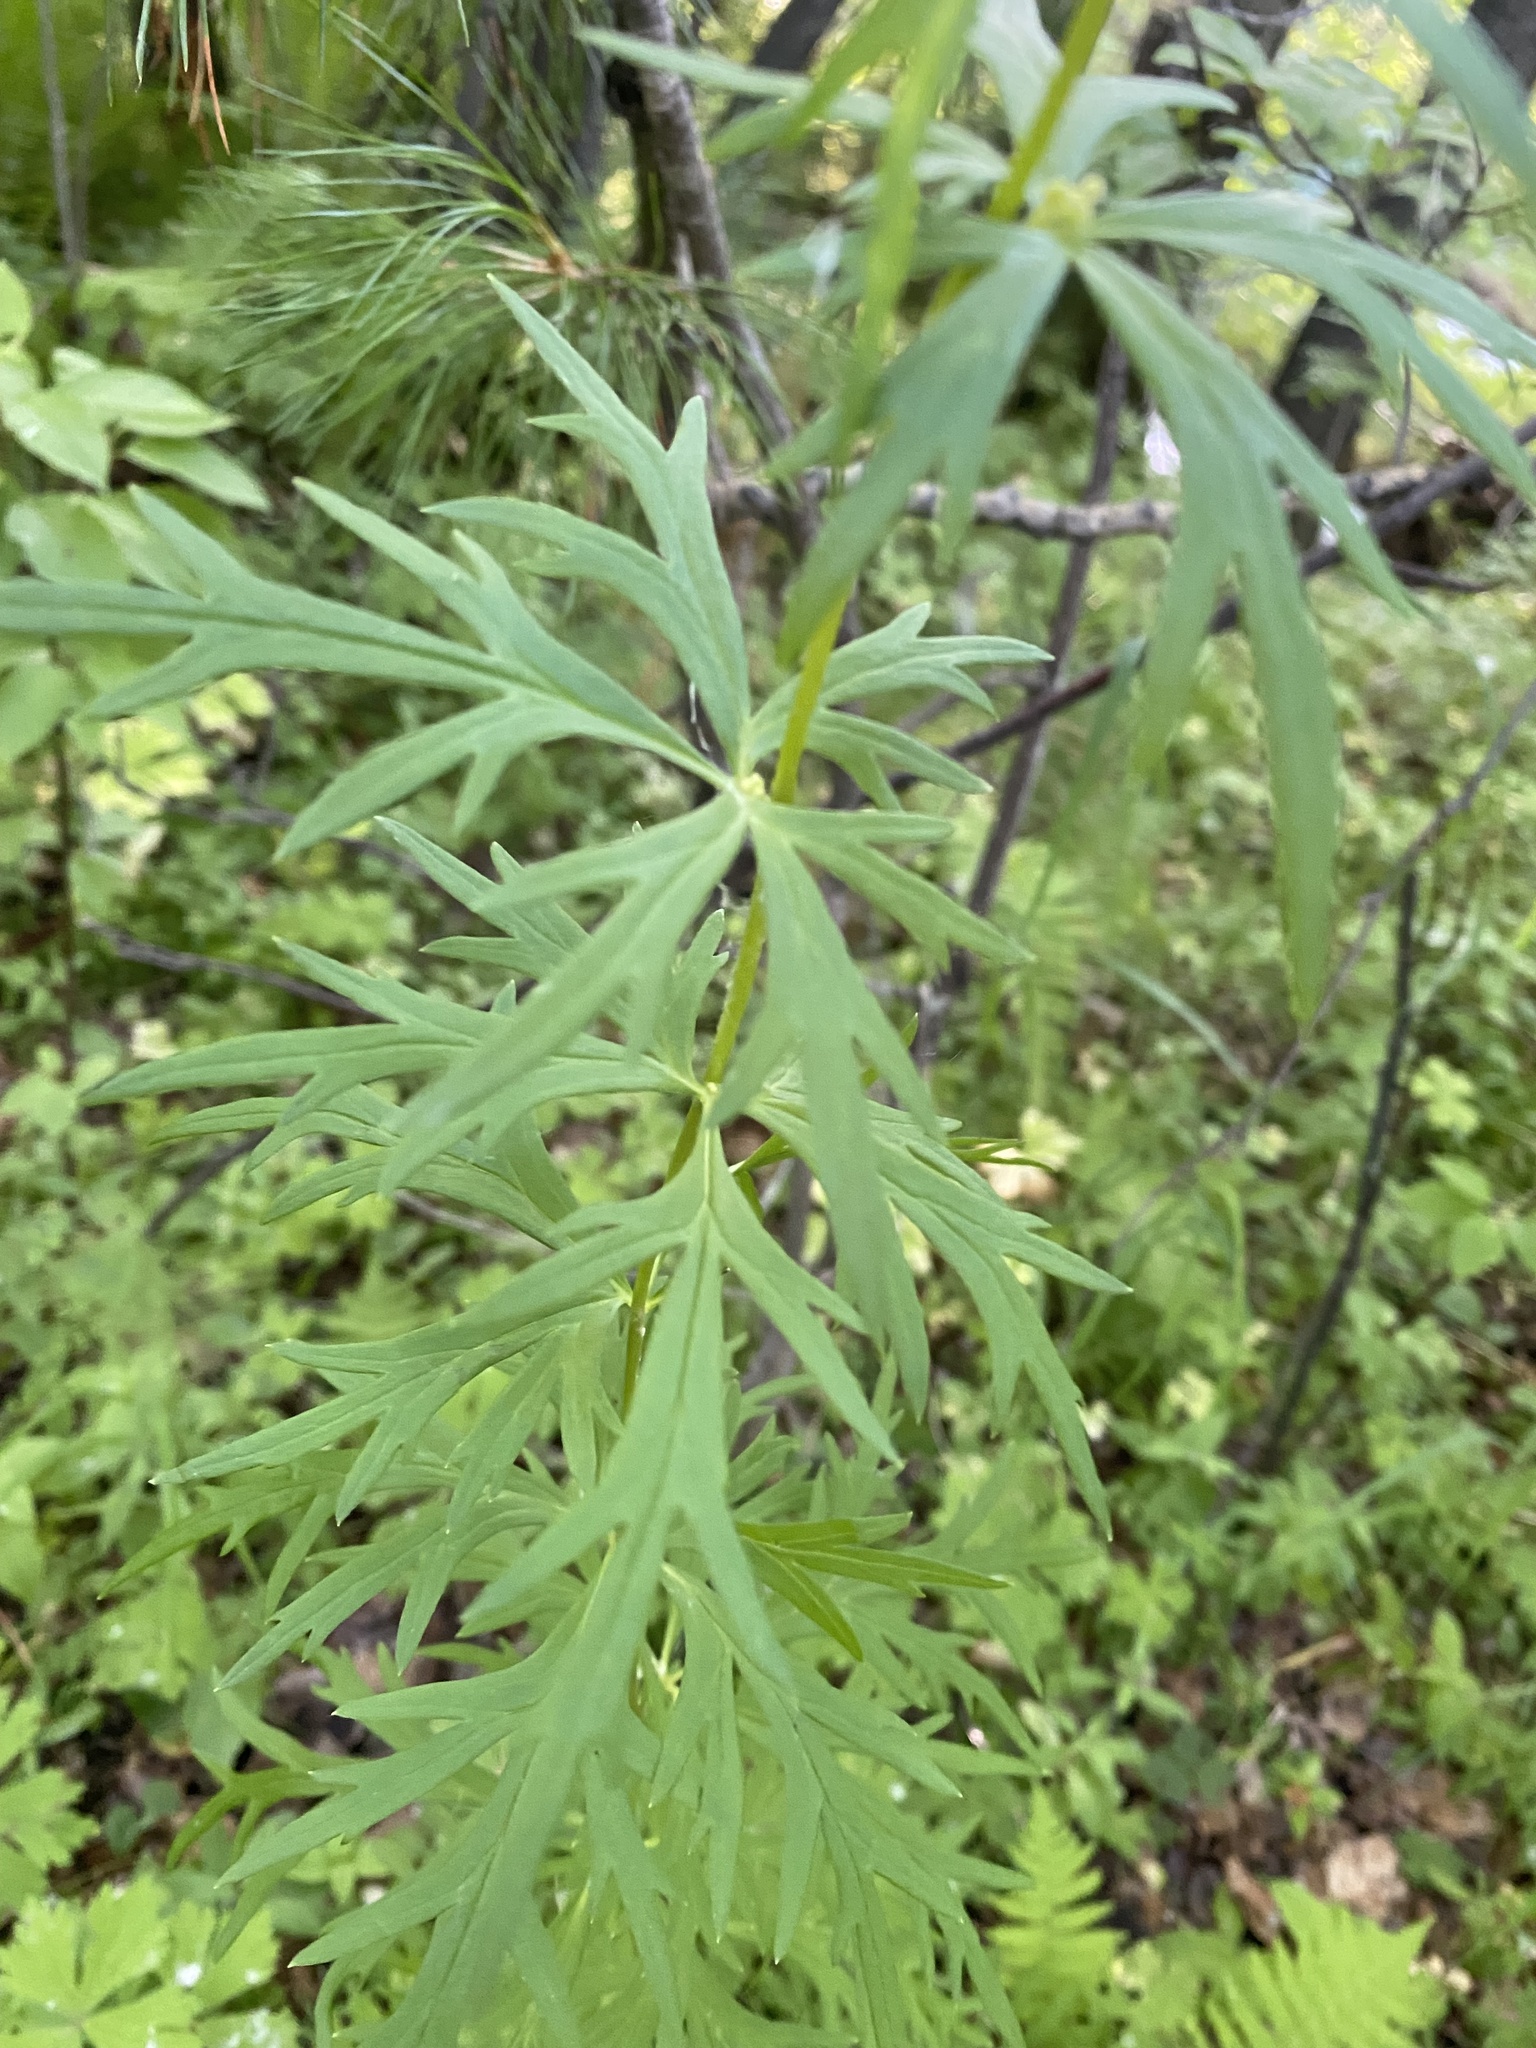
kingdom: Plantae
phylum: Tracheophyta
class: Magnoliopsida
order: Ranunculales
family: Ranunculaceae
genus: Aconitum
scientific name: Aconitum baicalense
